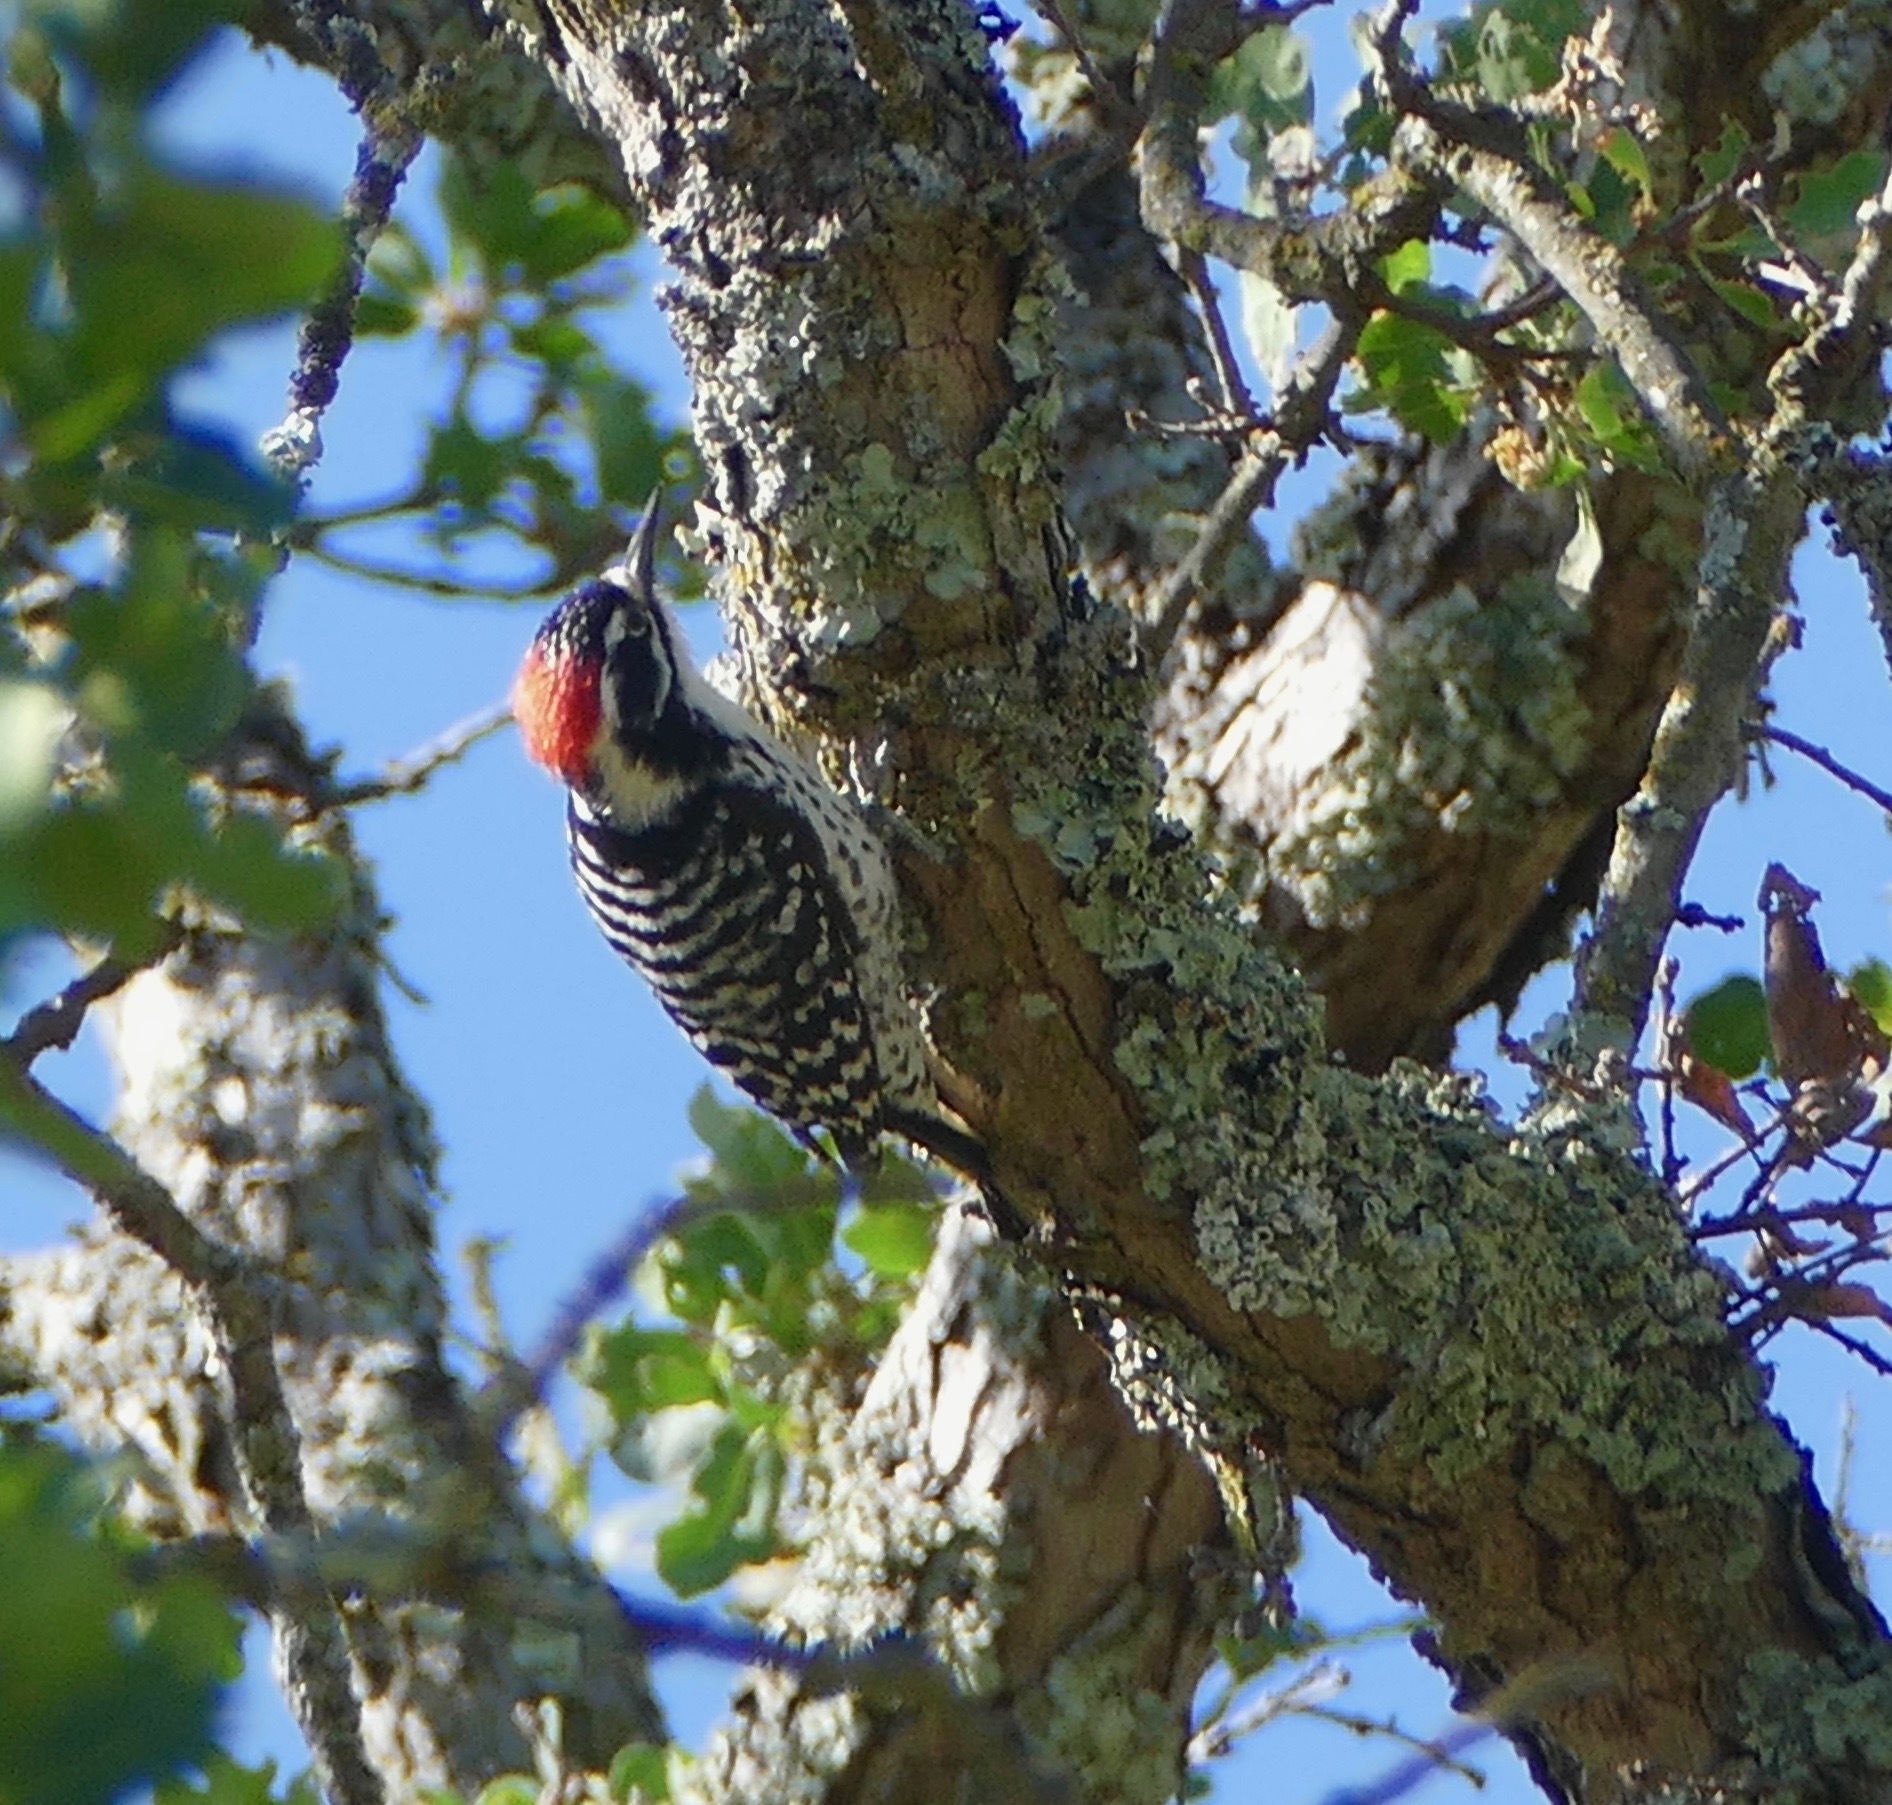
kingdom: Animalia
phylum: Chordata
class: Aves
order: Piciformes
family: Picidae
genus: Dryobates
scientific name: Dryobates nuttallii
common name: Nuttall's woodpecker
